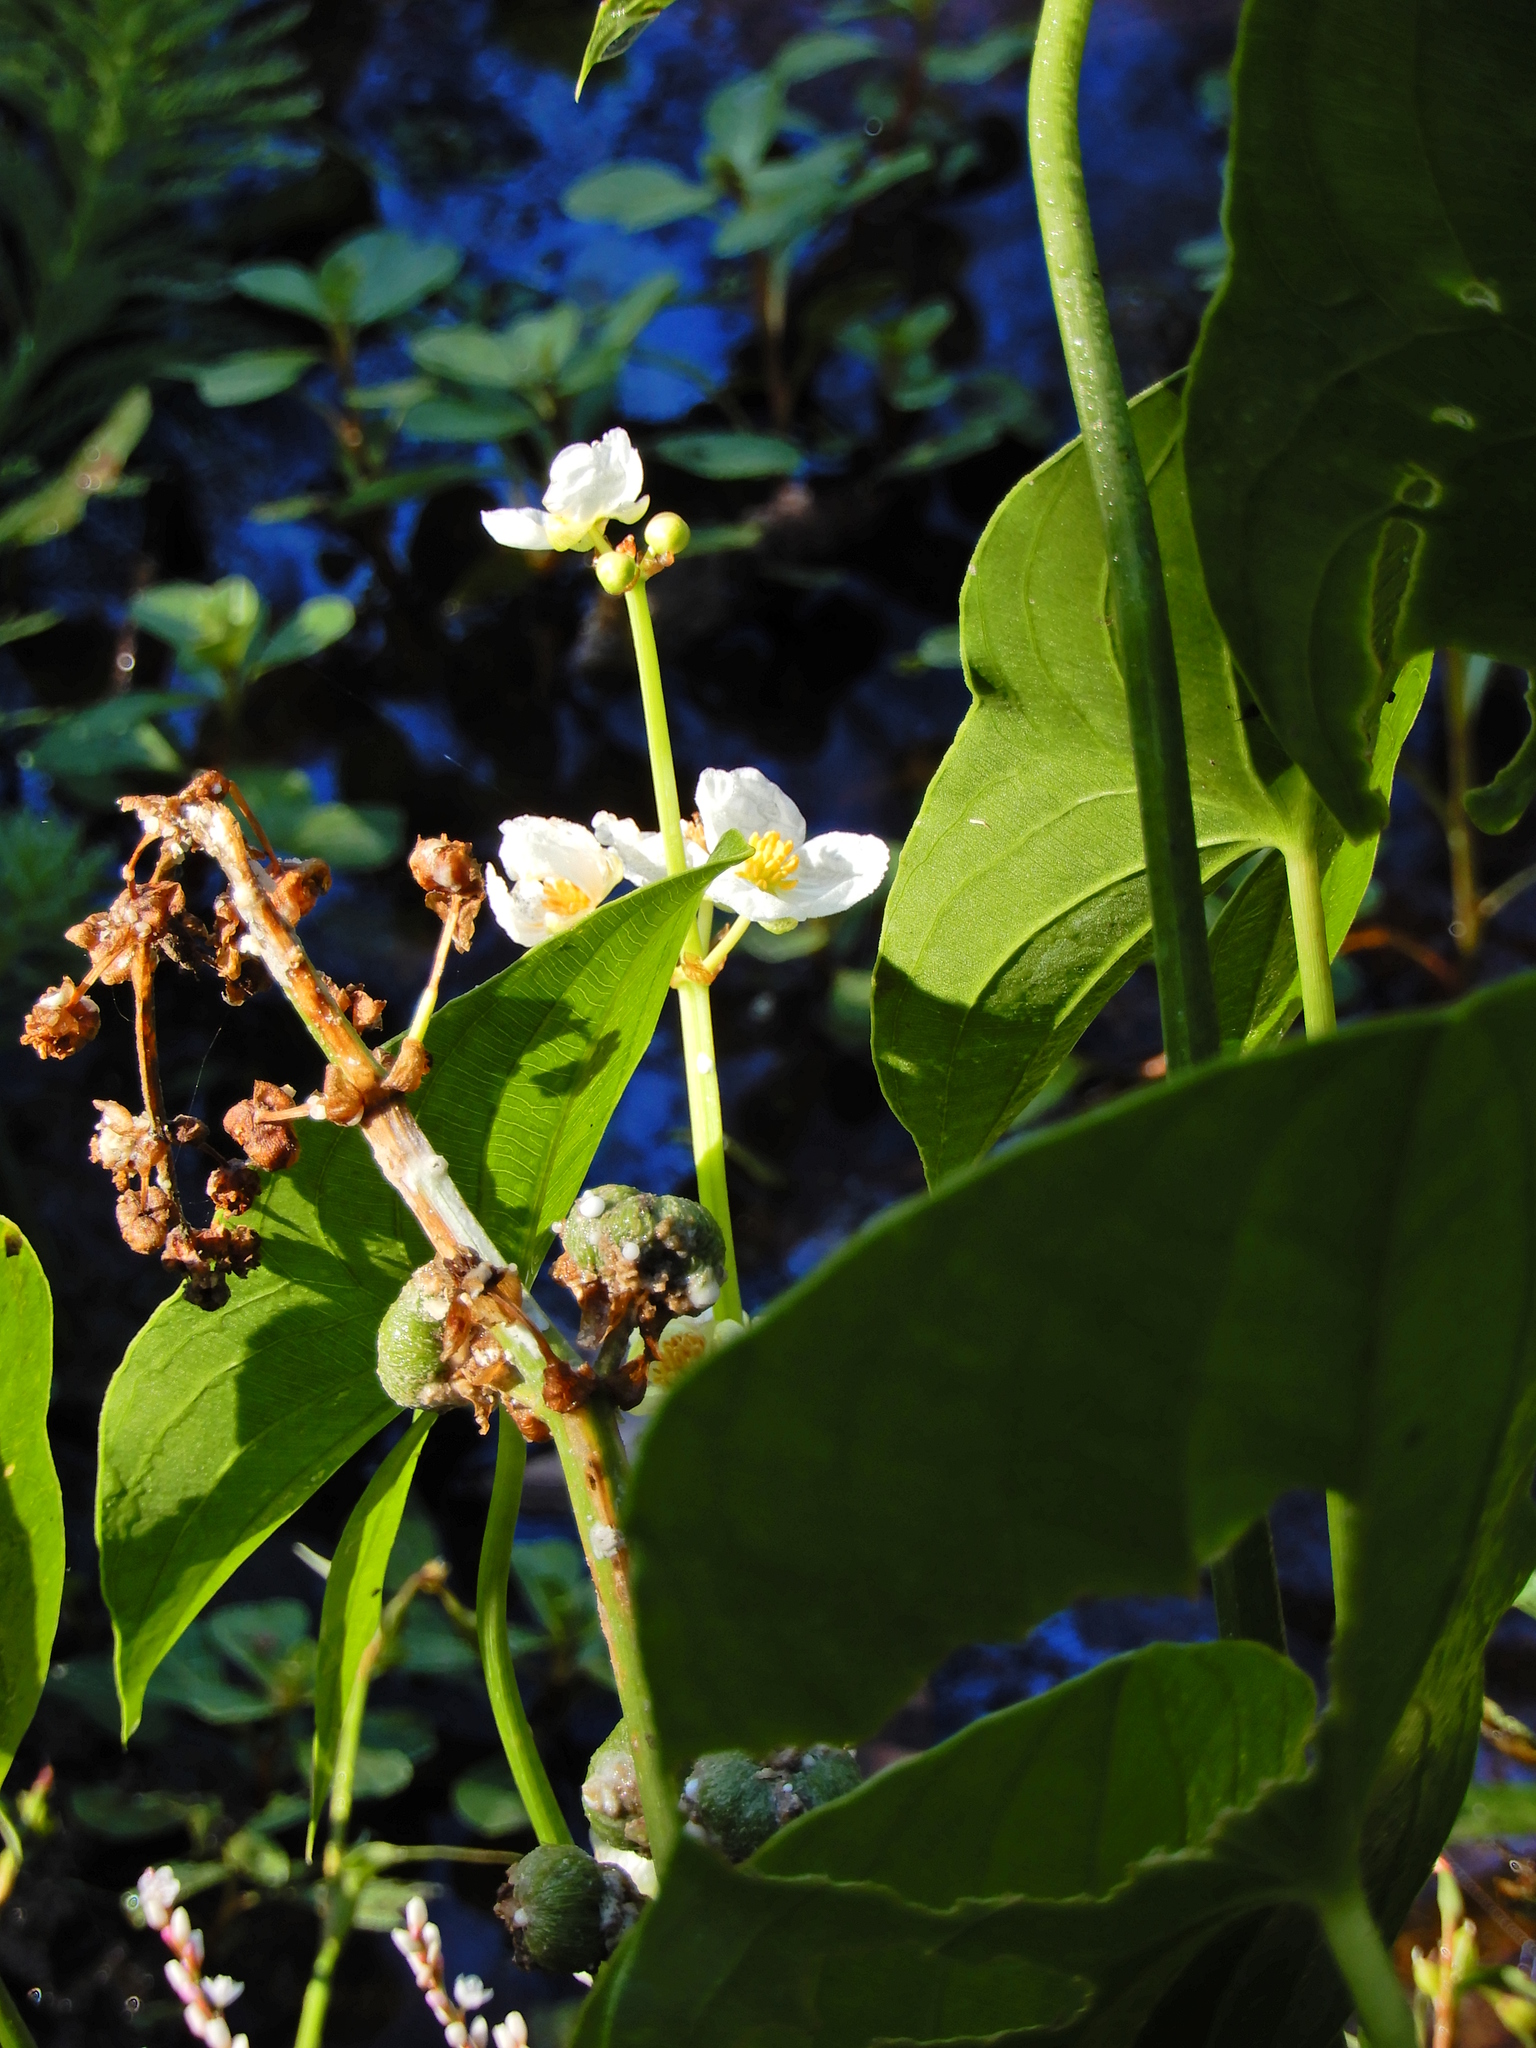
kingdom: Plantae
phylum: Tracheophyta
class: Liliopsida
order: Alismatales
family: Alismataceae
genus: Sagittaria
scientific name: Sagittaria latifolia
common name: Duck-potato
